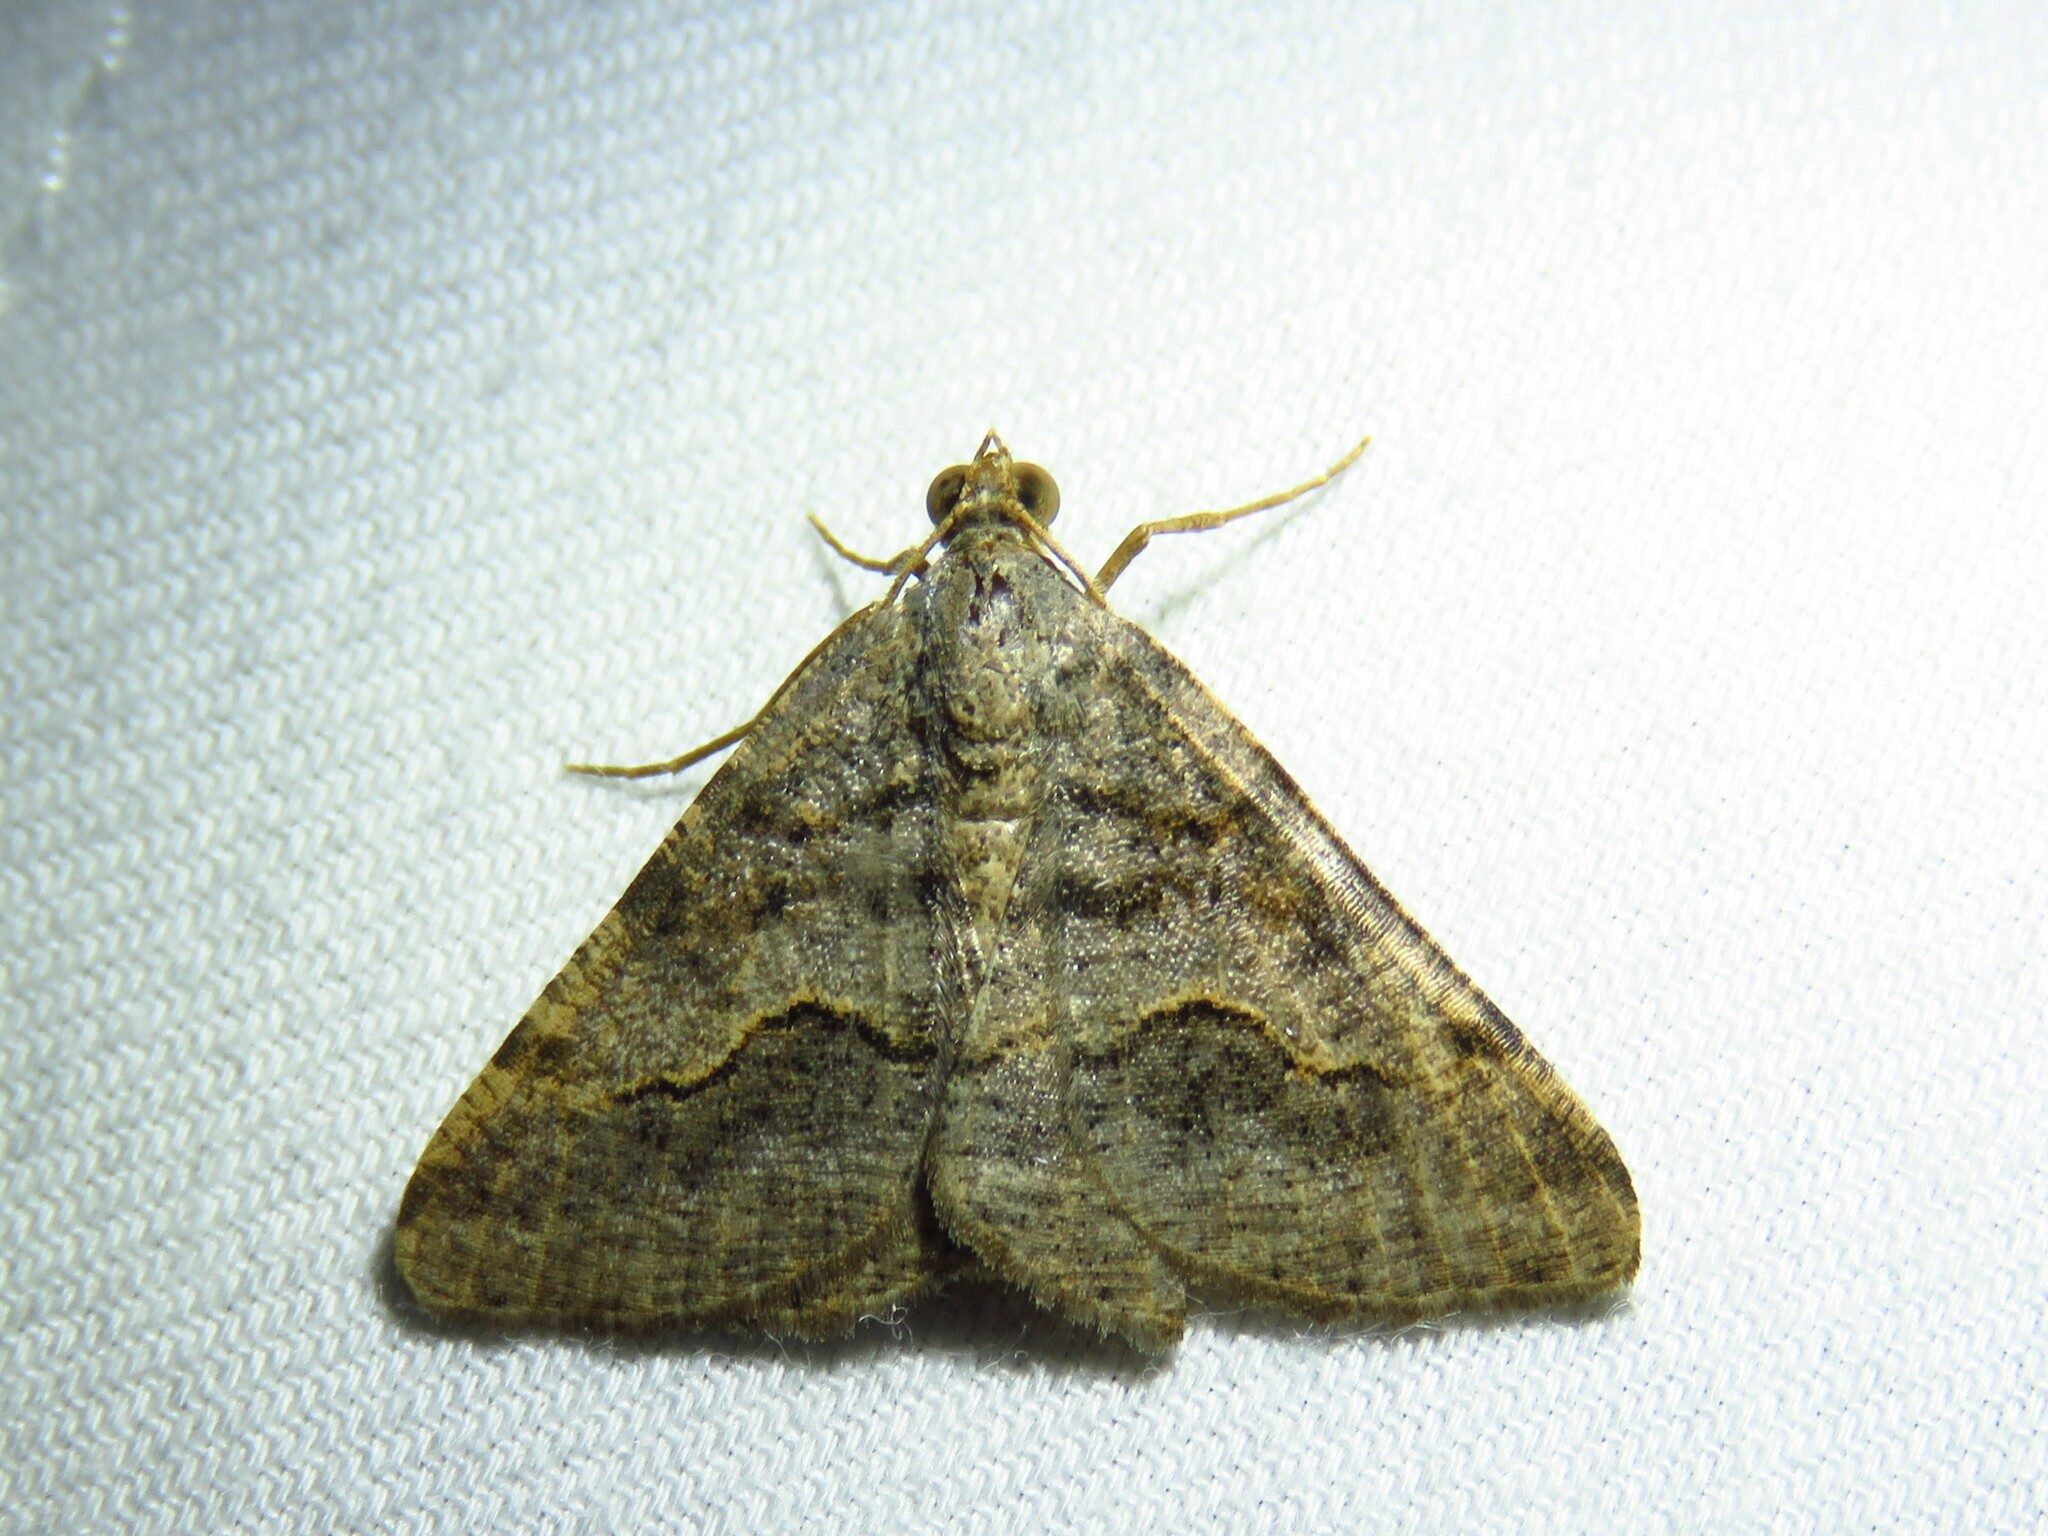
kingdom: Animalia
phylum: Arthropoda
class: Insecta
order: Lepidoptera
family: Geometridae
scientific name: Geometridae
